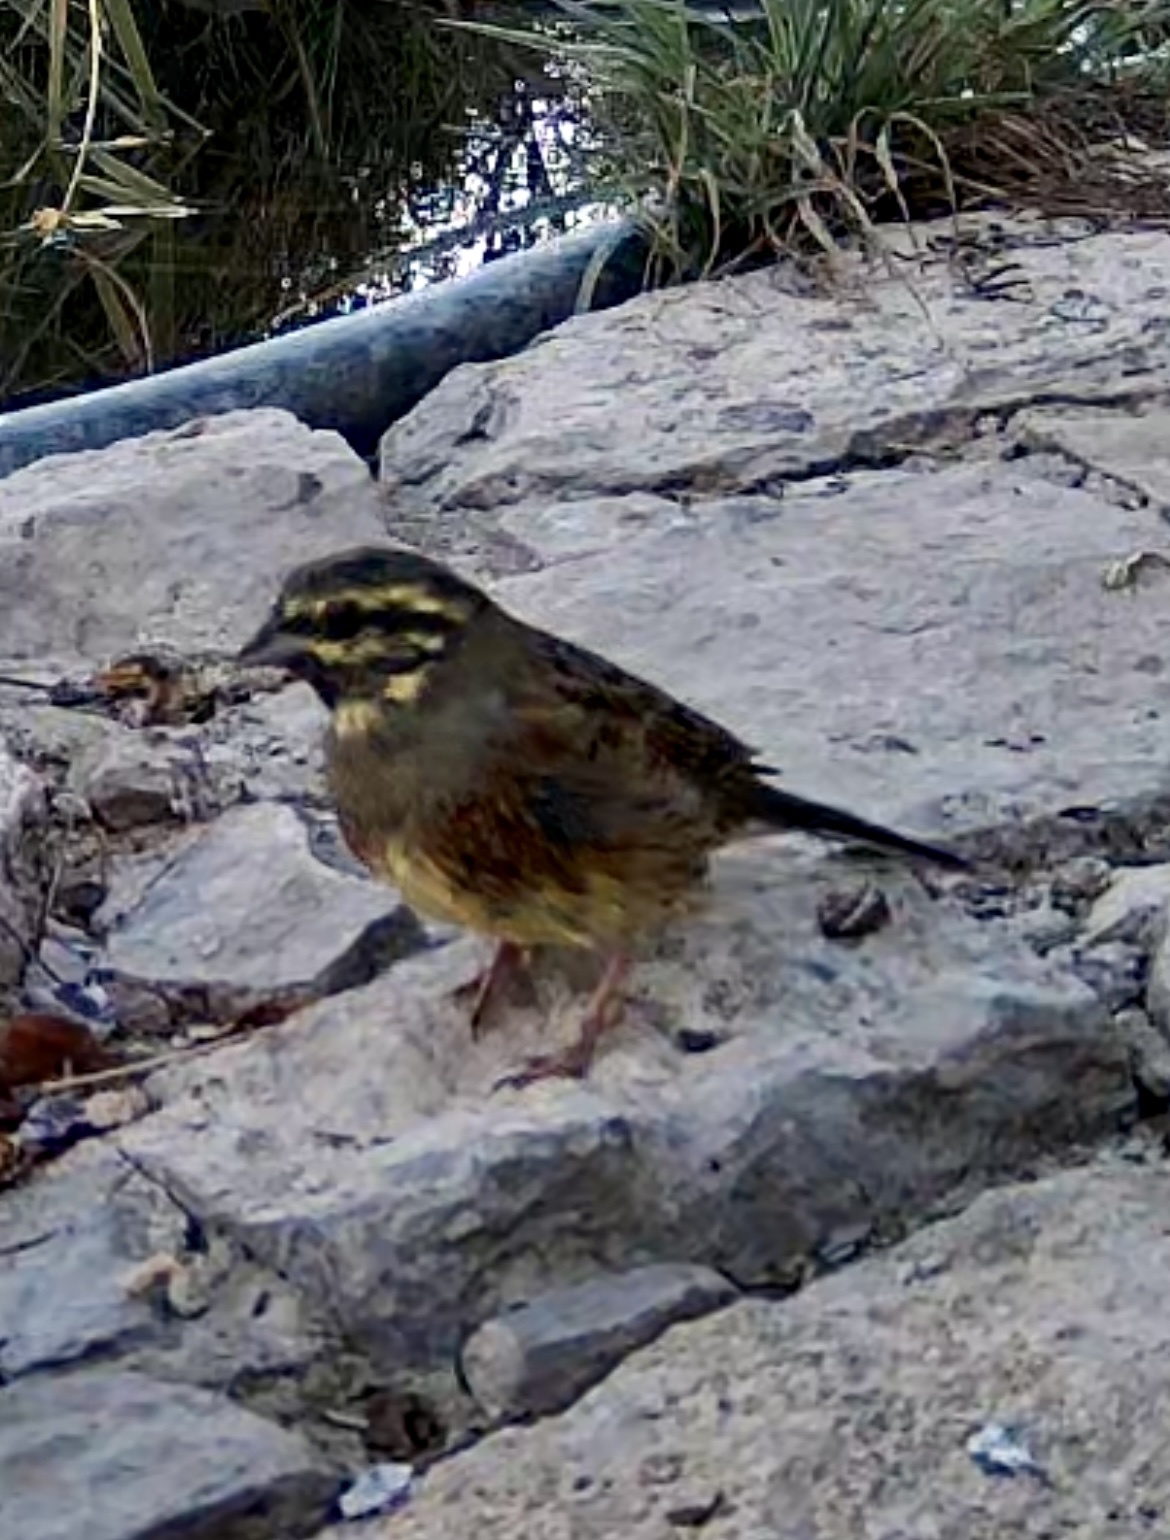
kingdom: Animalia
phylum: Chordata
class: Aves
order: Passeriformes
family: Emberizidae
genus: Emberiza
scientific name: Emberiza cirlus
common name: Cirl bunting
